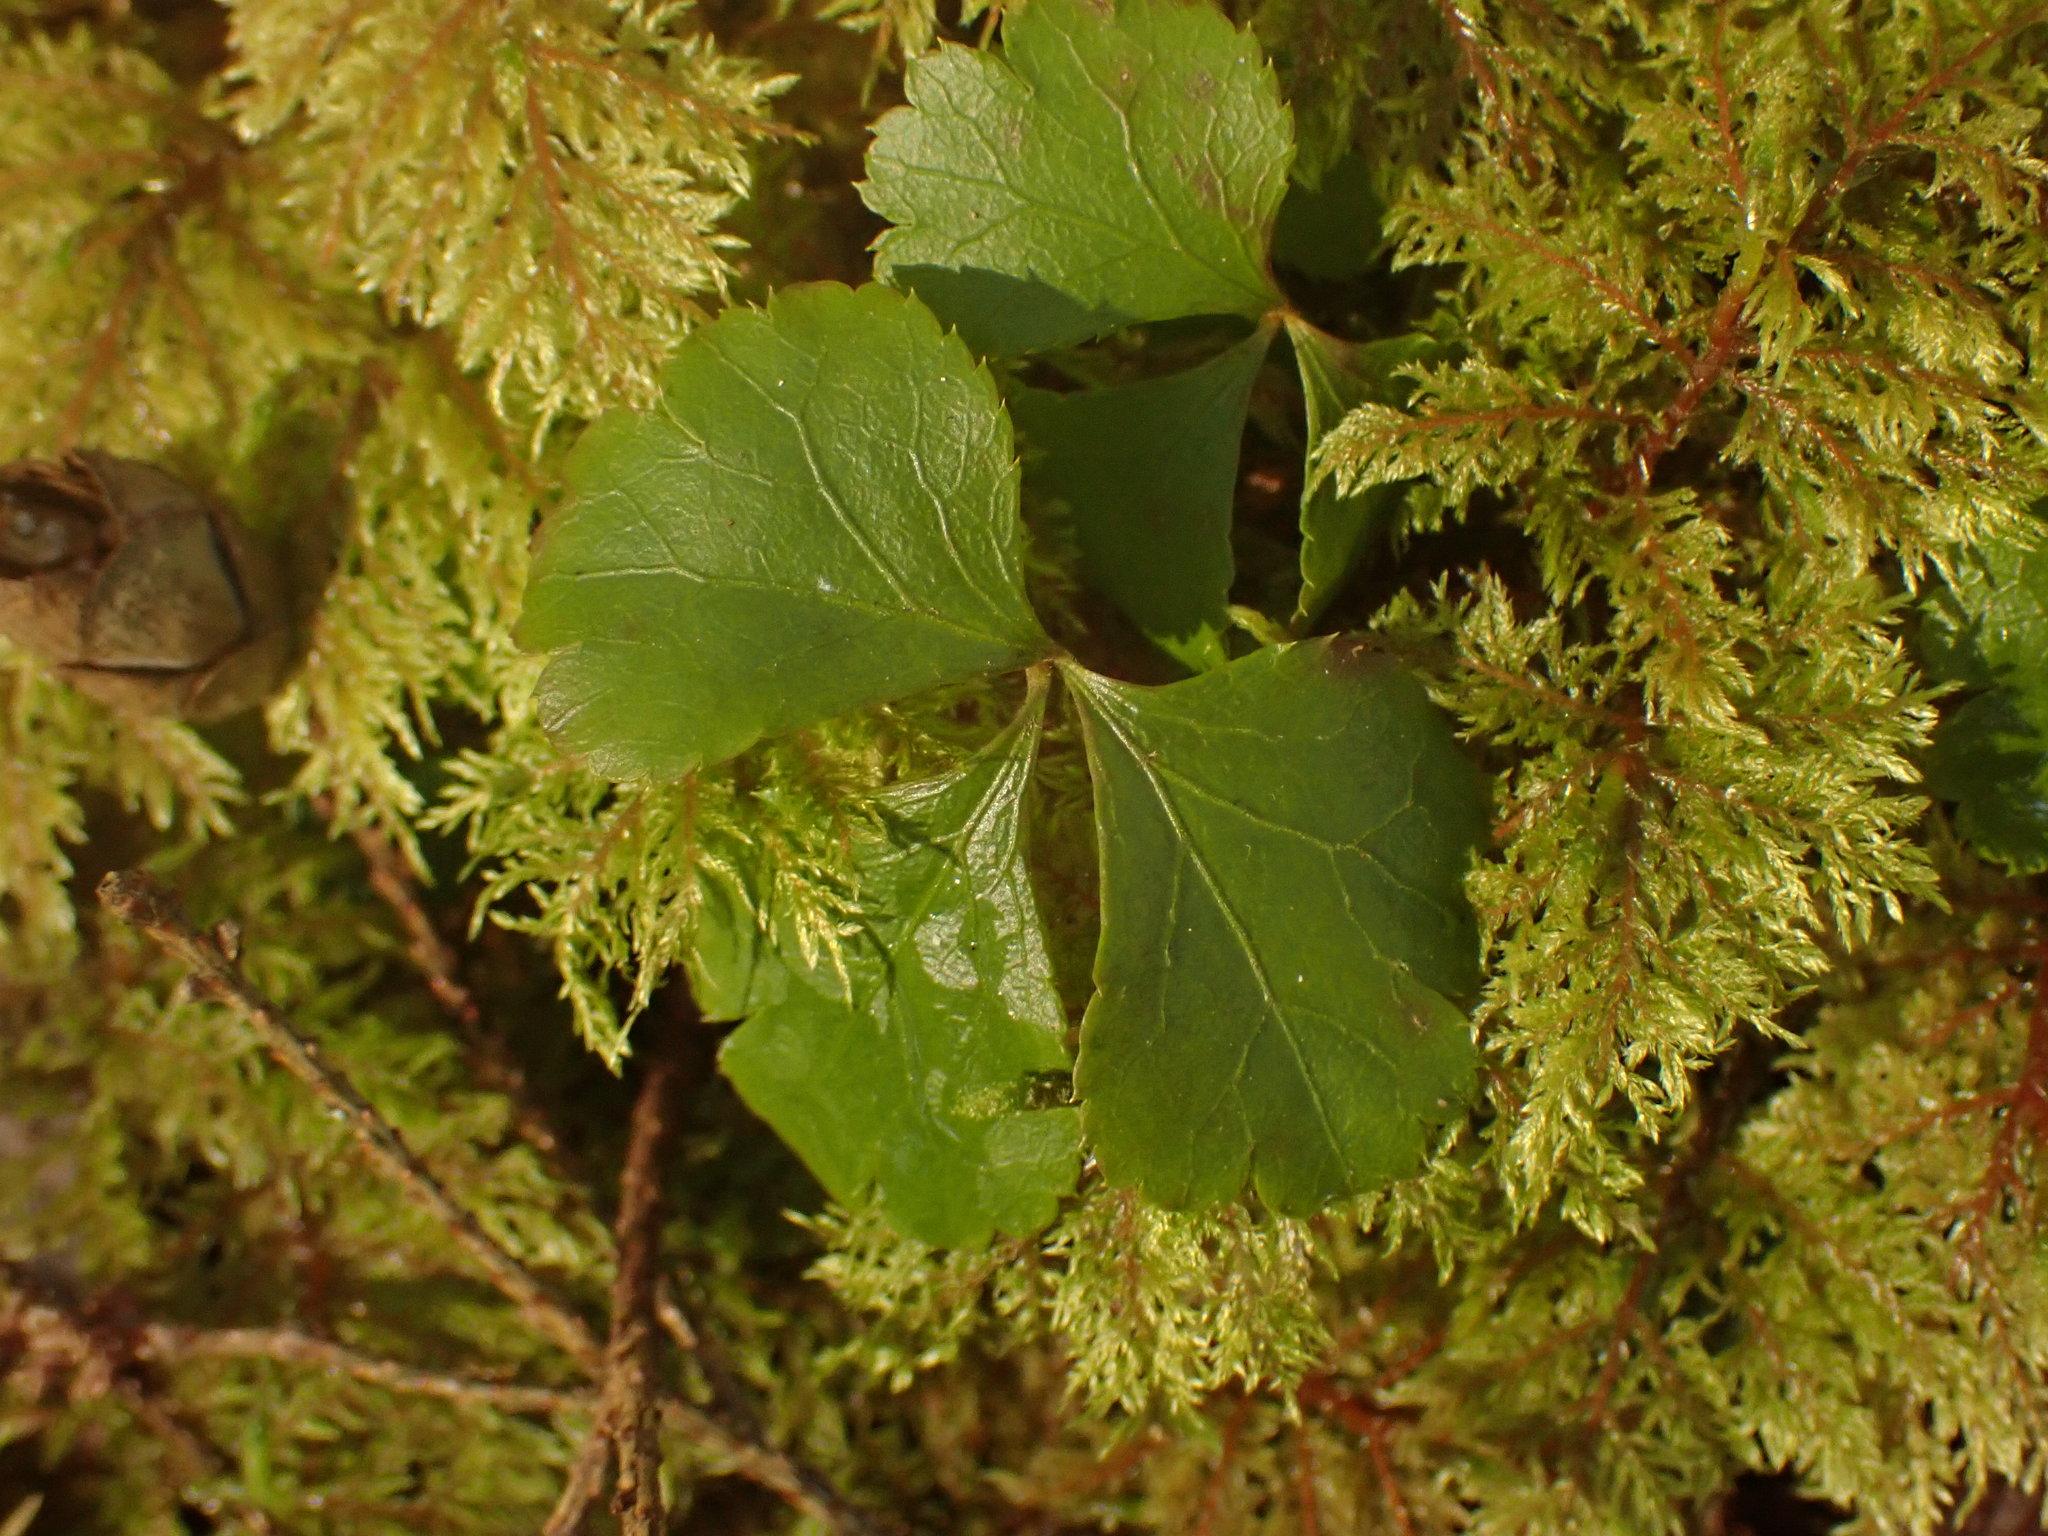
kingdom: Plantae
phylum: Tracheophyta
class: Magnoliopsida
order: Ranunculales
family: Ranunculaceae
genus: Coptis
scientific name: Coptis trifolia
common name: Canker-root
